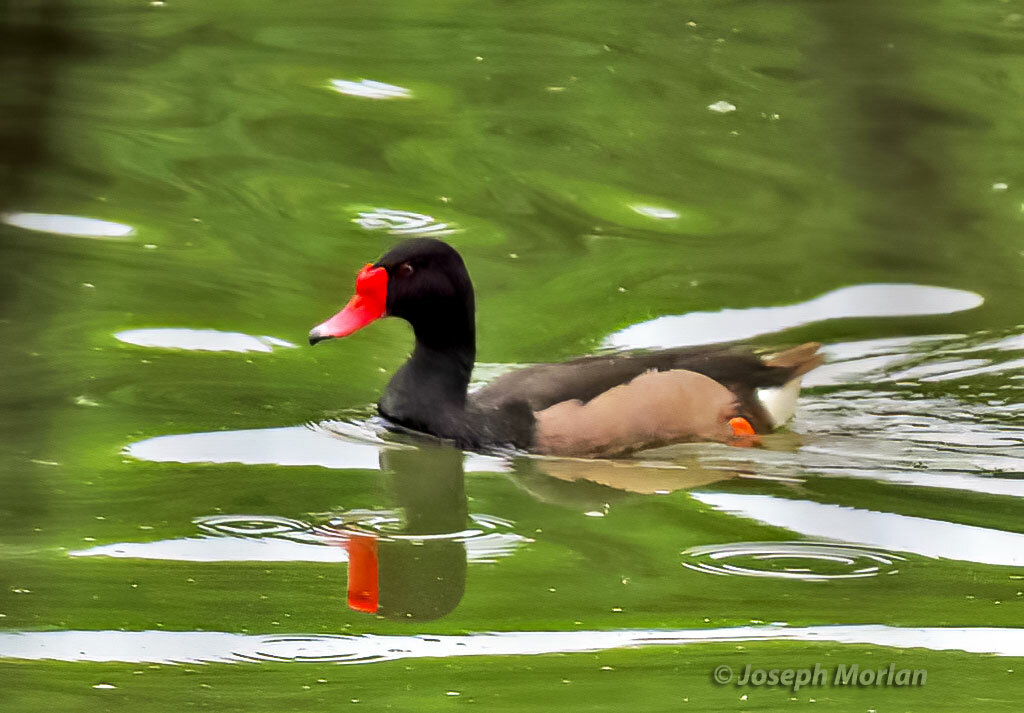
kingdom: Animalia
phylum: Chordata
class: Aves
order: Anseriformes
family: Anatidae
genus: Netta
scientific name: Netta peposaca
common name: Rosy-billed pochard
